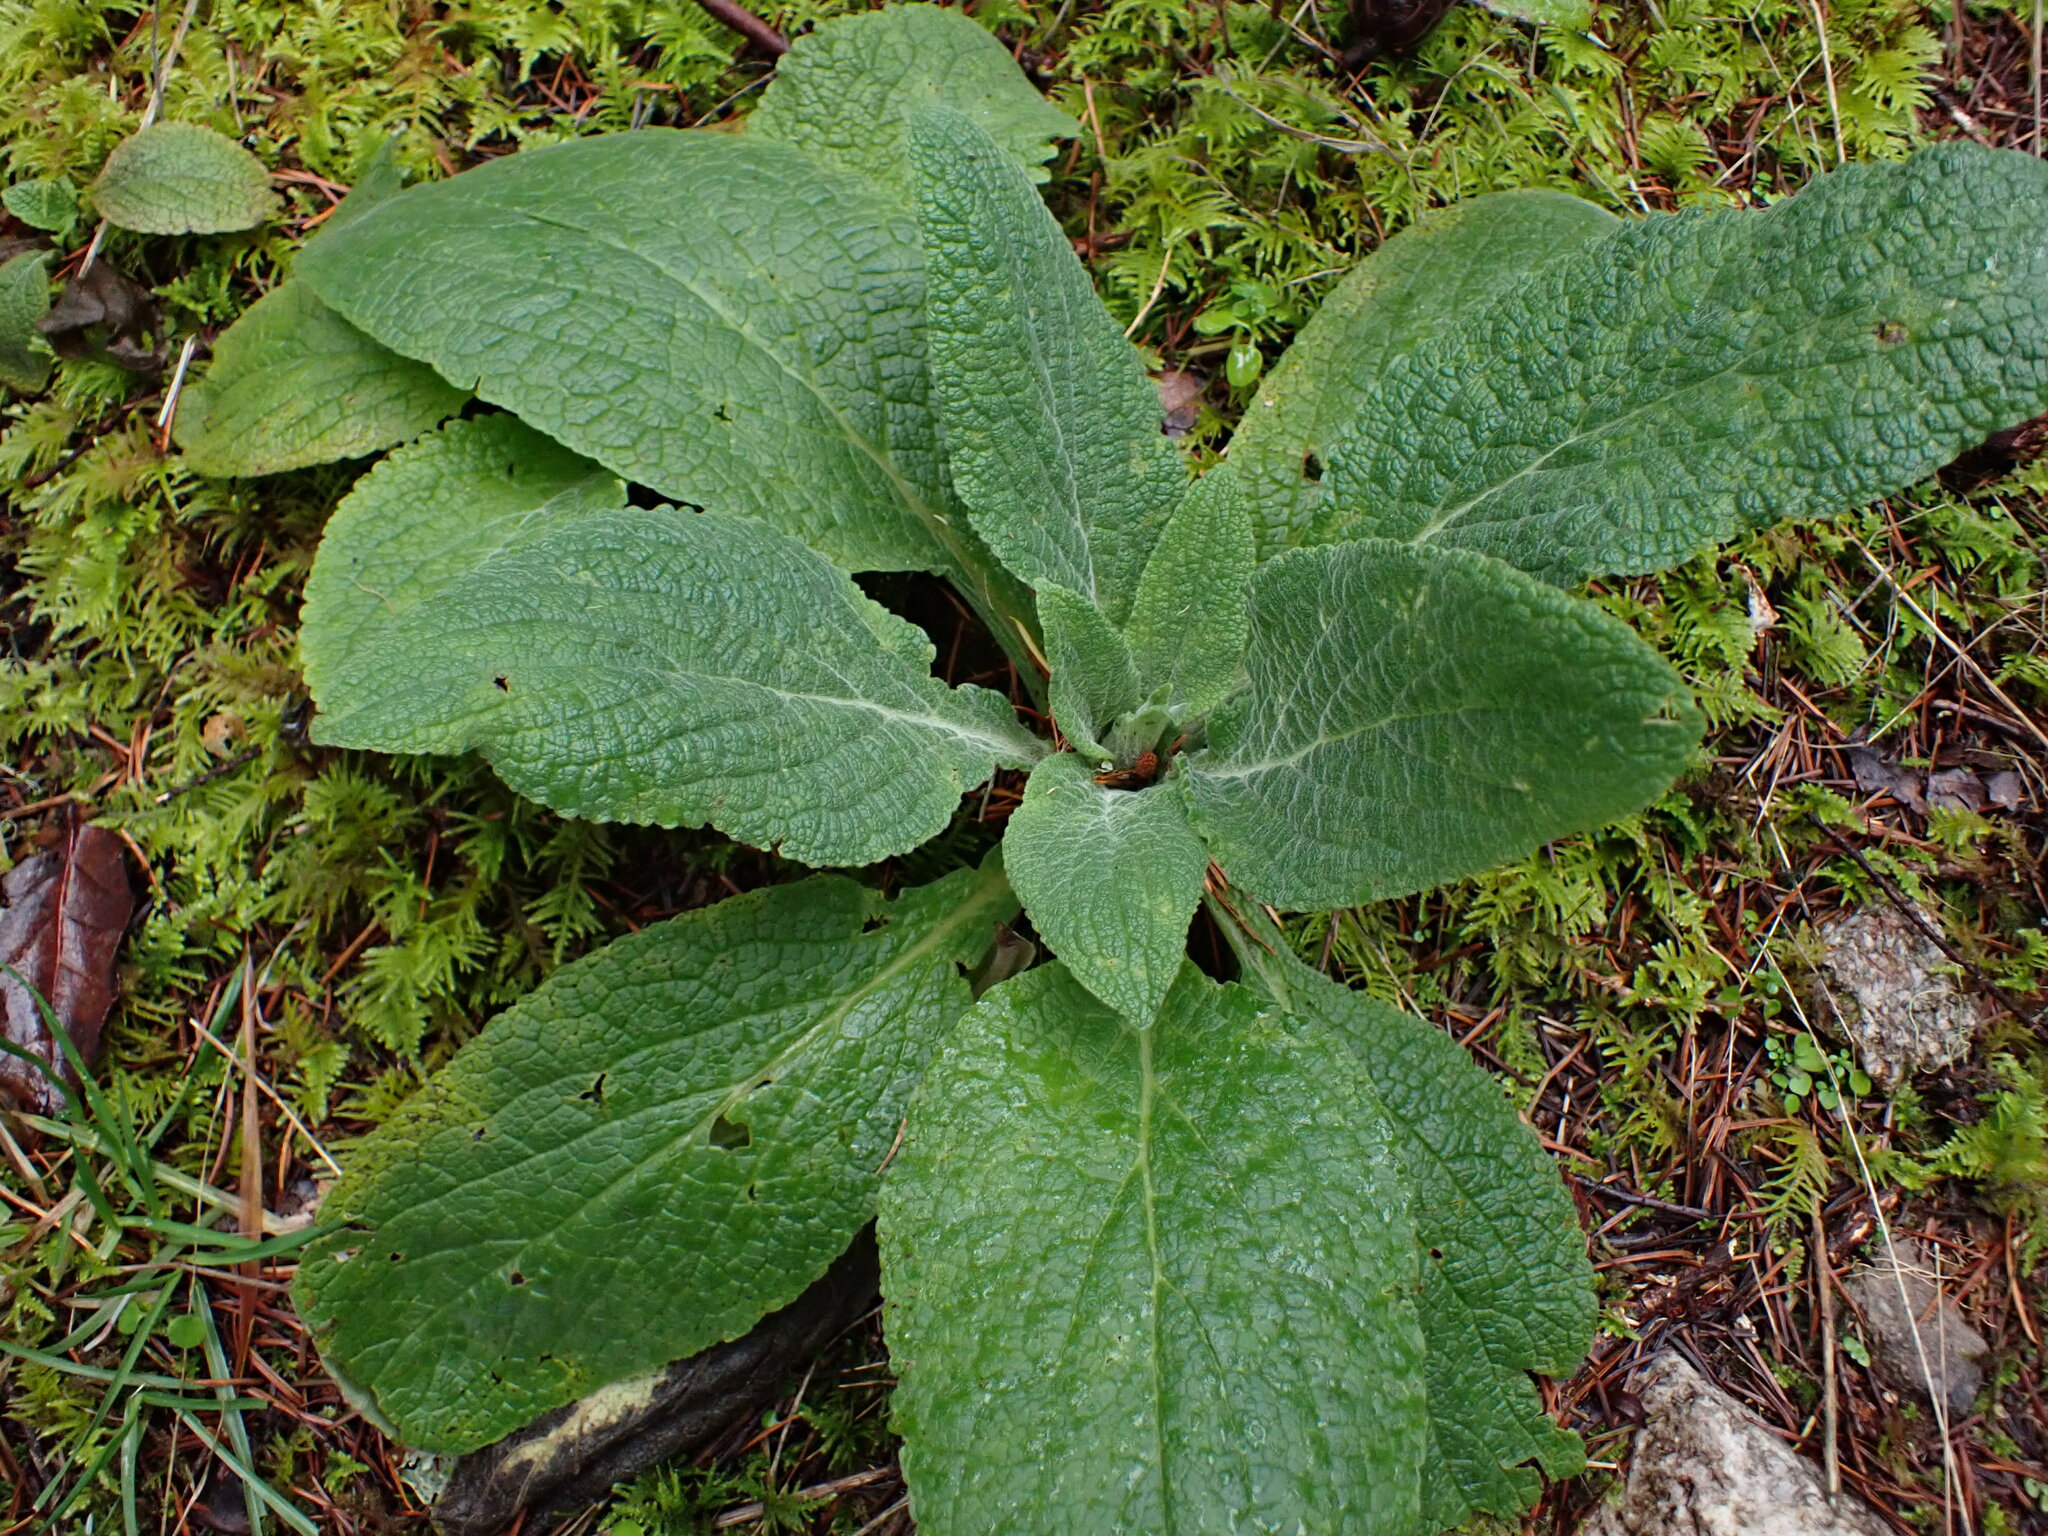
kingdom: Plantae
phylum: Tracheophyta
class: Magnoliopsida
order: Lamiales
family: Plantaginaceae
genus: Digitalis
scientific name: Digitalis purpurea
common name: Foxglove
